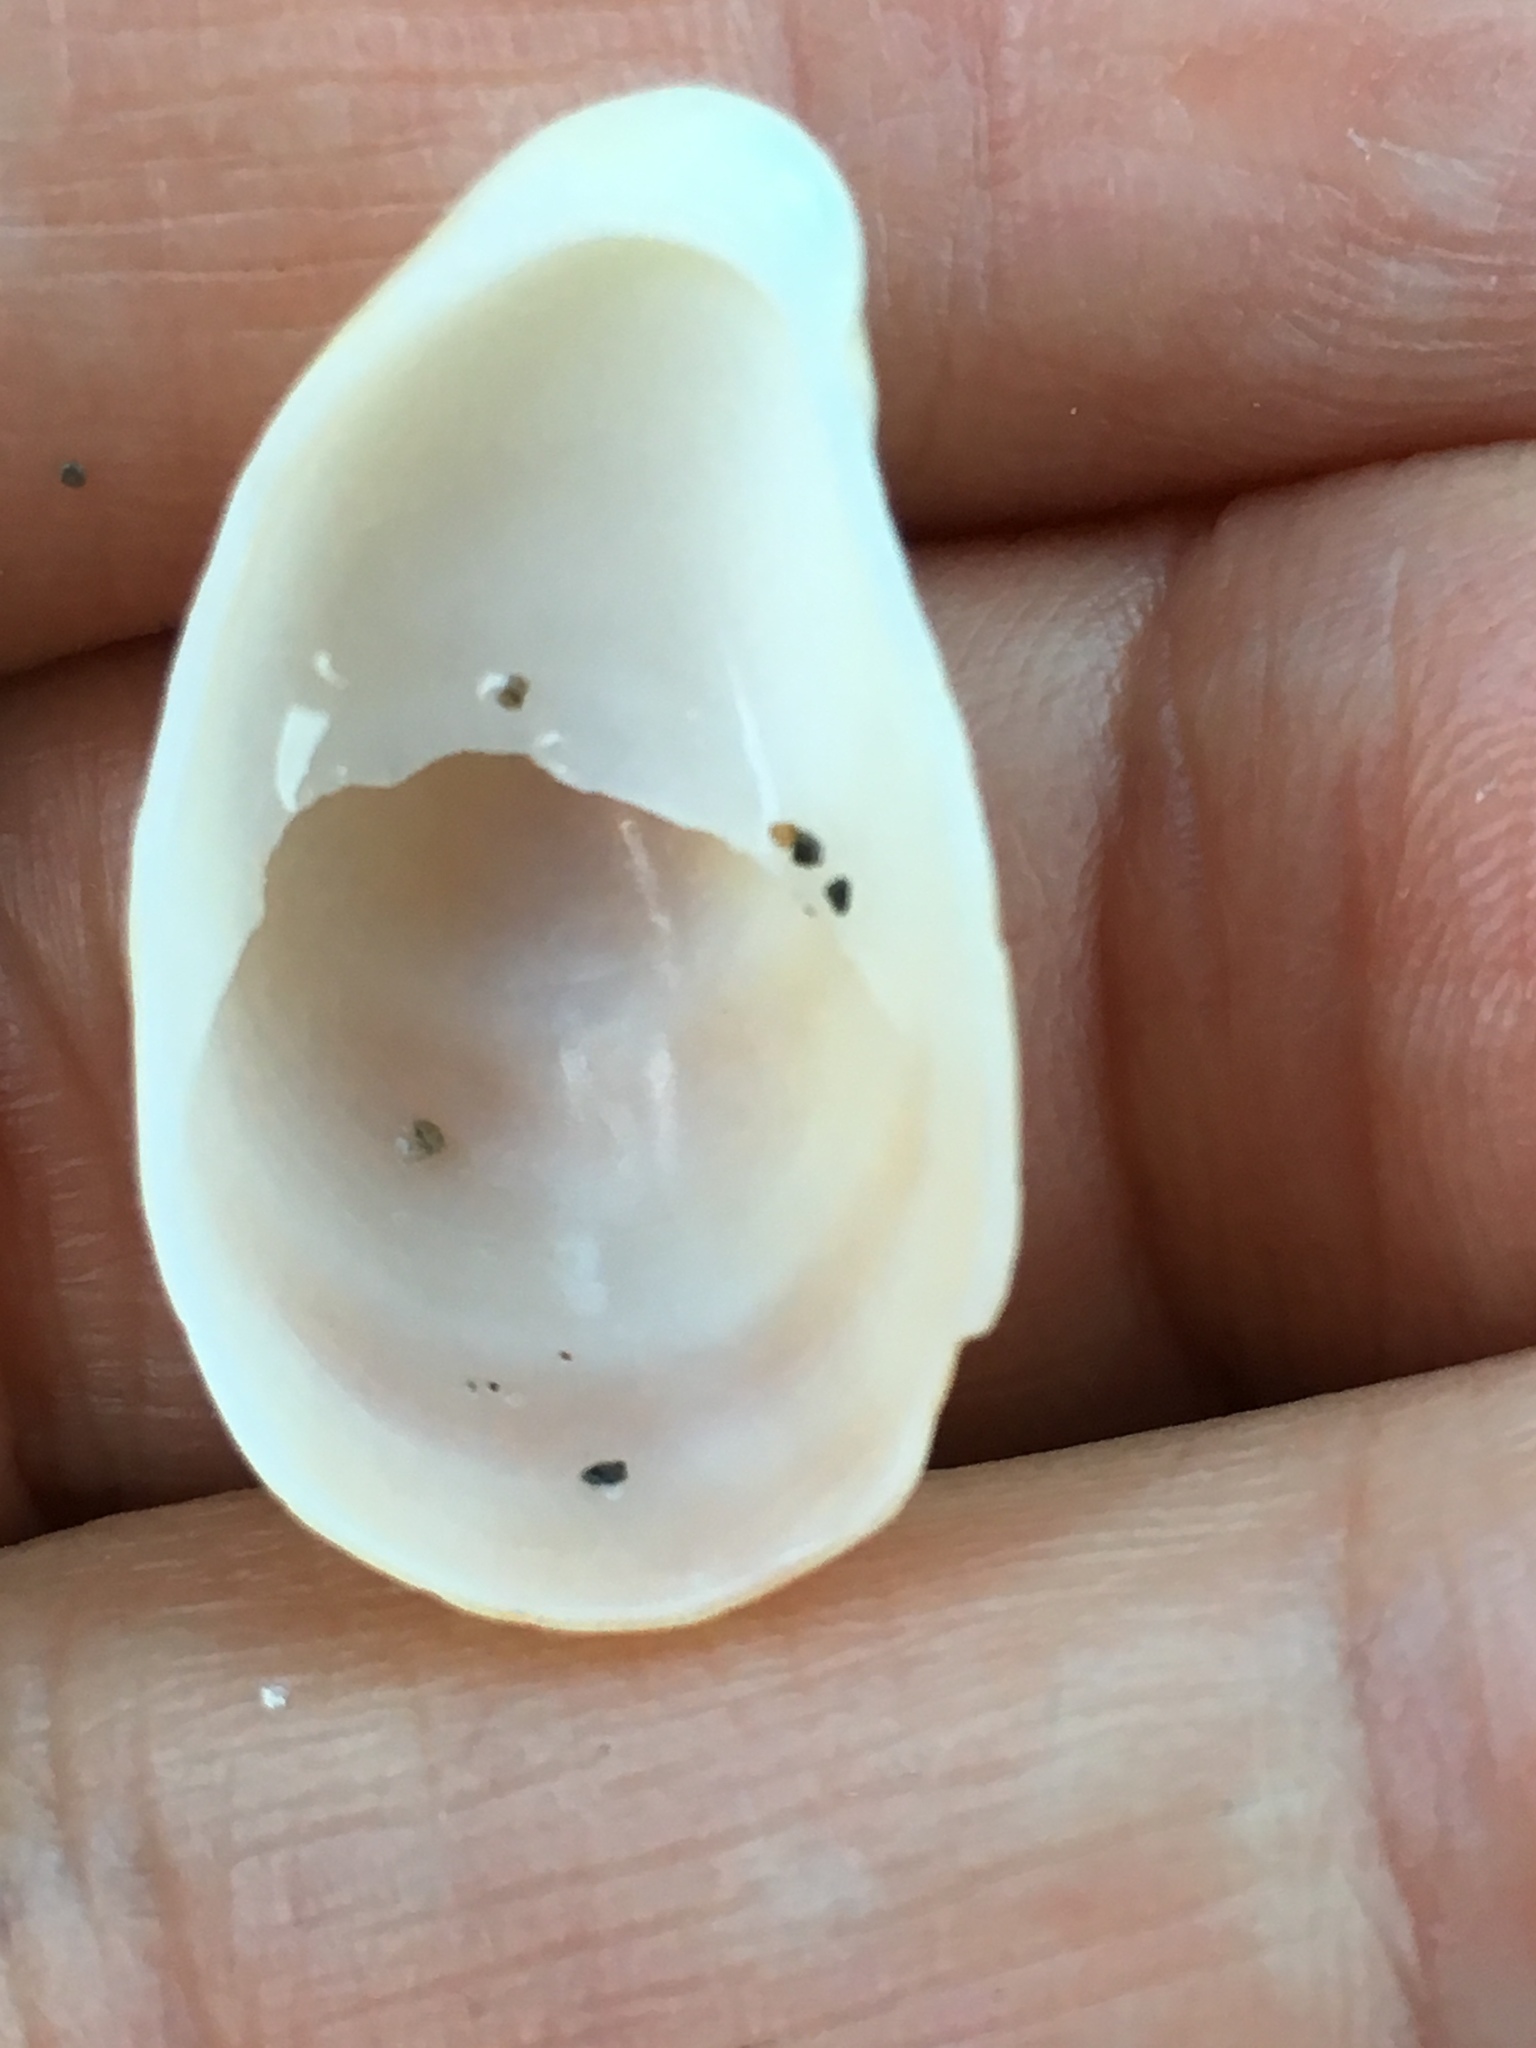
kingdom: Animalia
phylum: Mollusca
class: Gastropoda
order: Littorinimorpha
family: Calyptraeidae
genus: Crepidula
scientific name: Crepidula fornicata
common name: Slipper limpet
